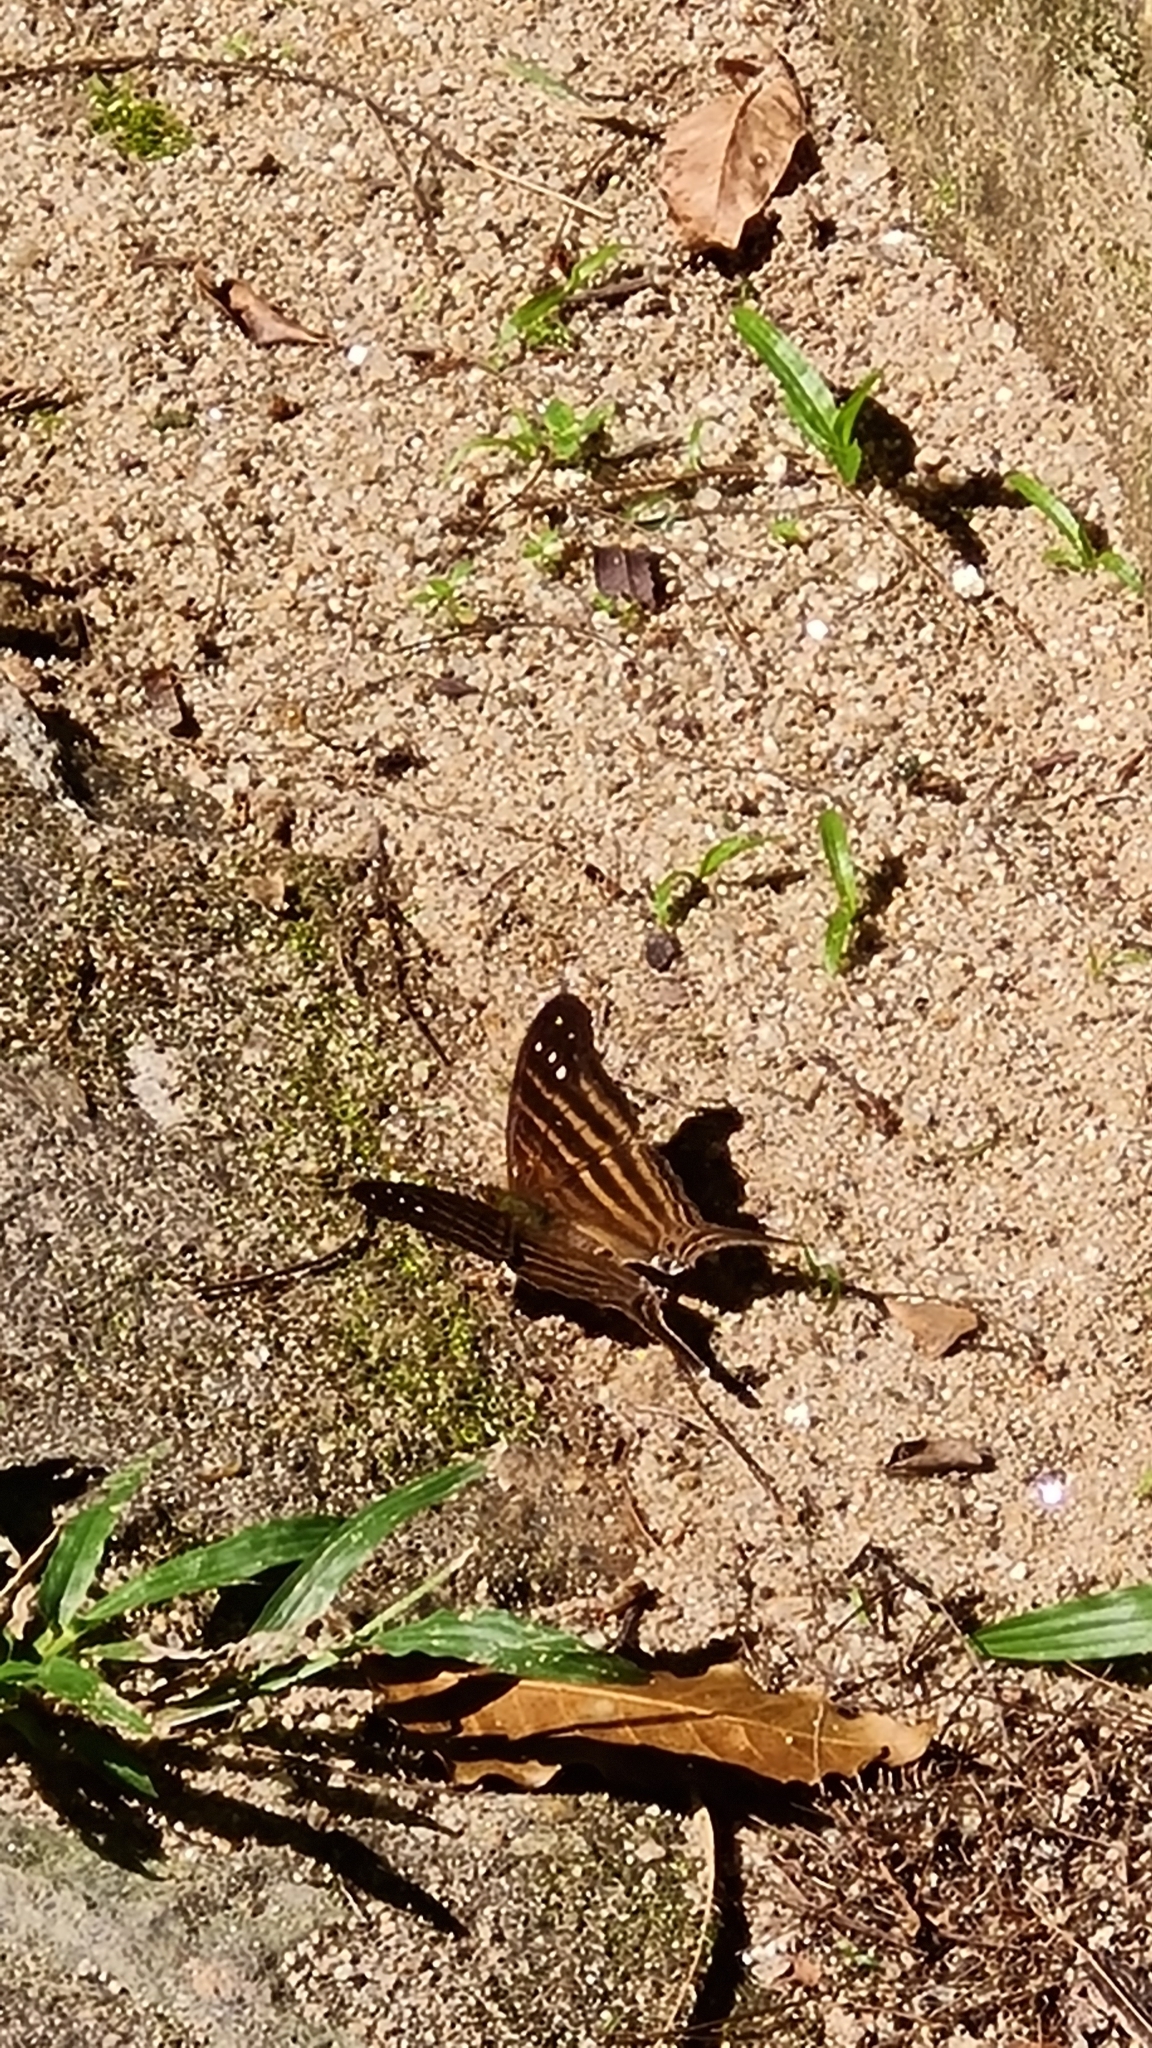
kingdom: Animalia
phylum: Arthropoda
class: Insecta
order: Lepidoptera
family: Nymphalidae
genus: Marpesia
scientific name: Marpesia chiron
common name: Many-banded daggerwing
